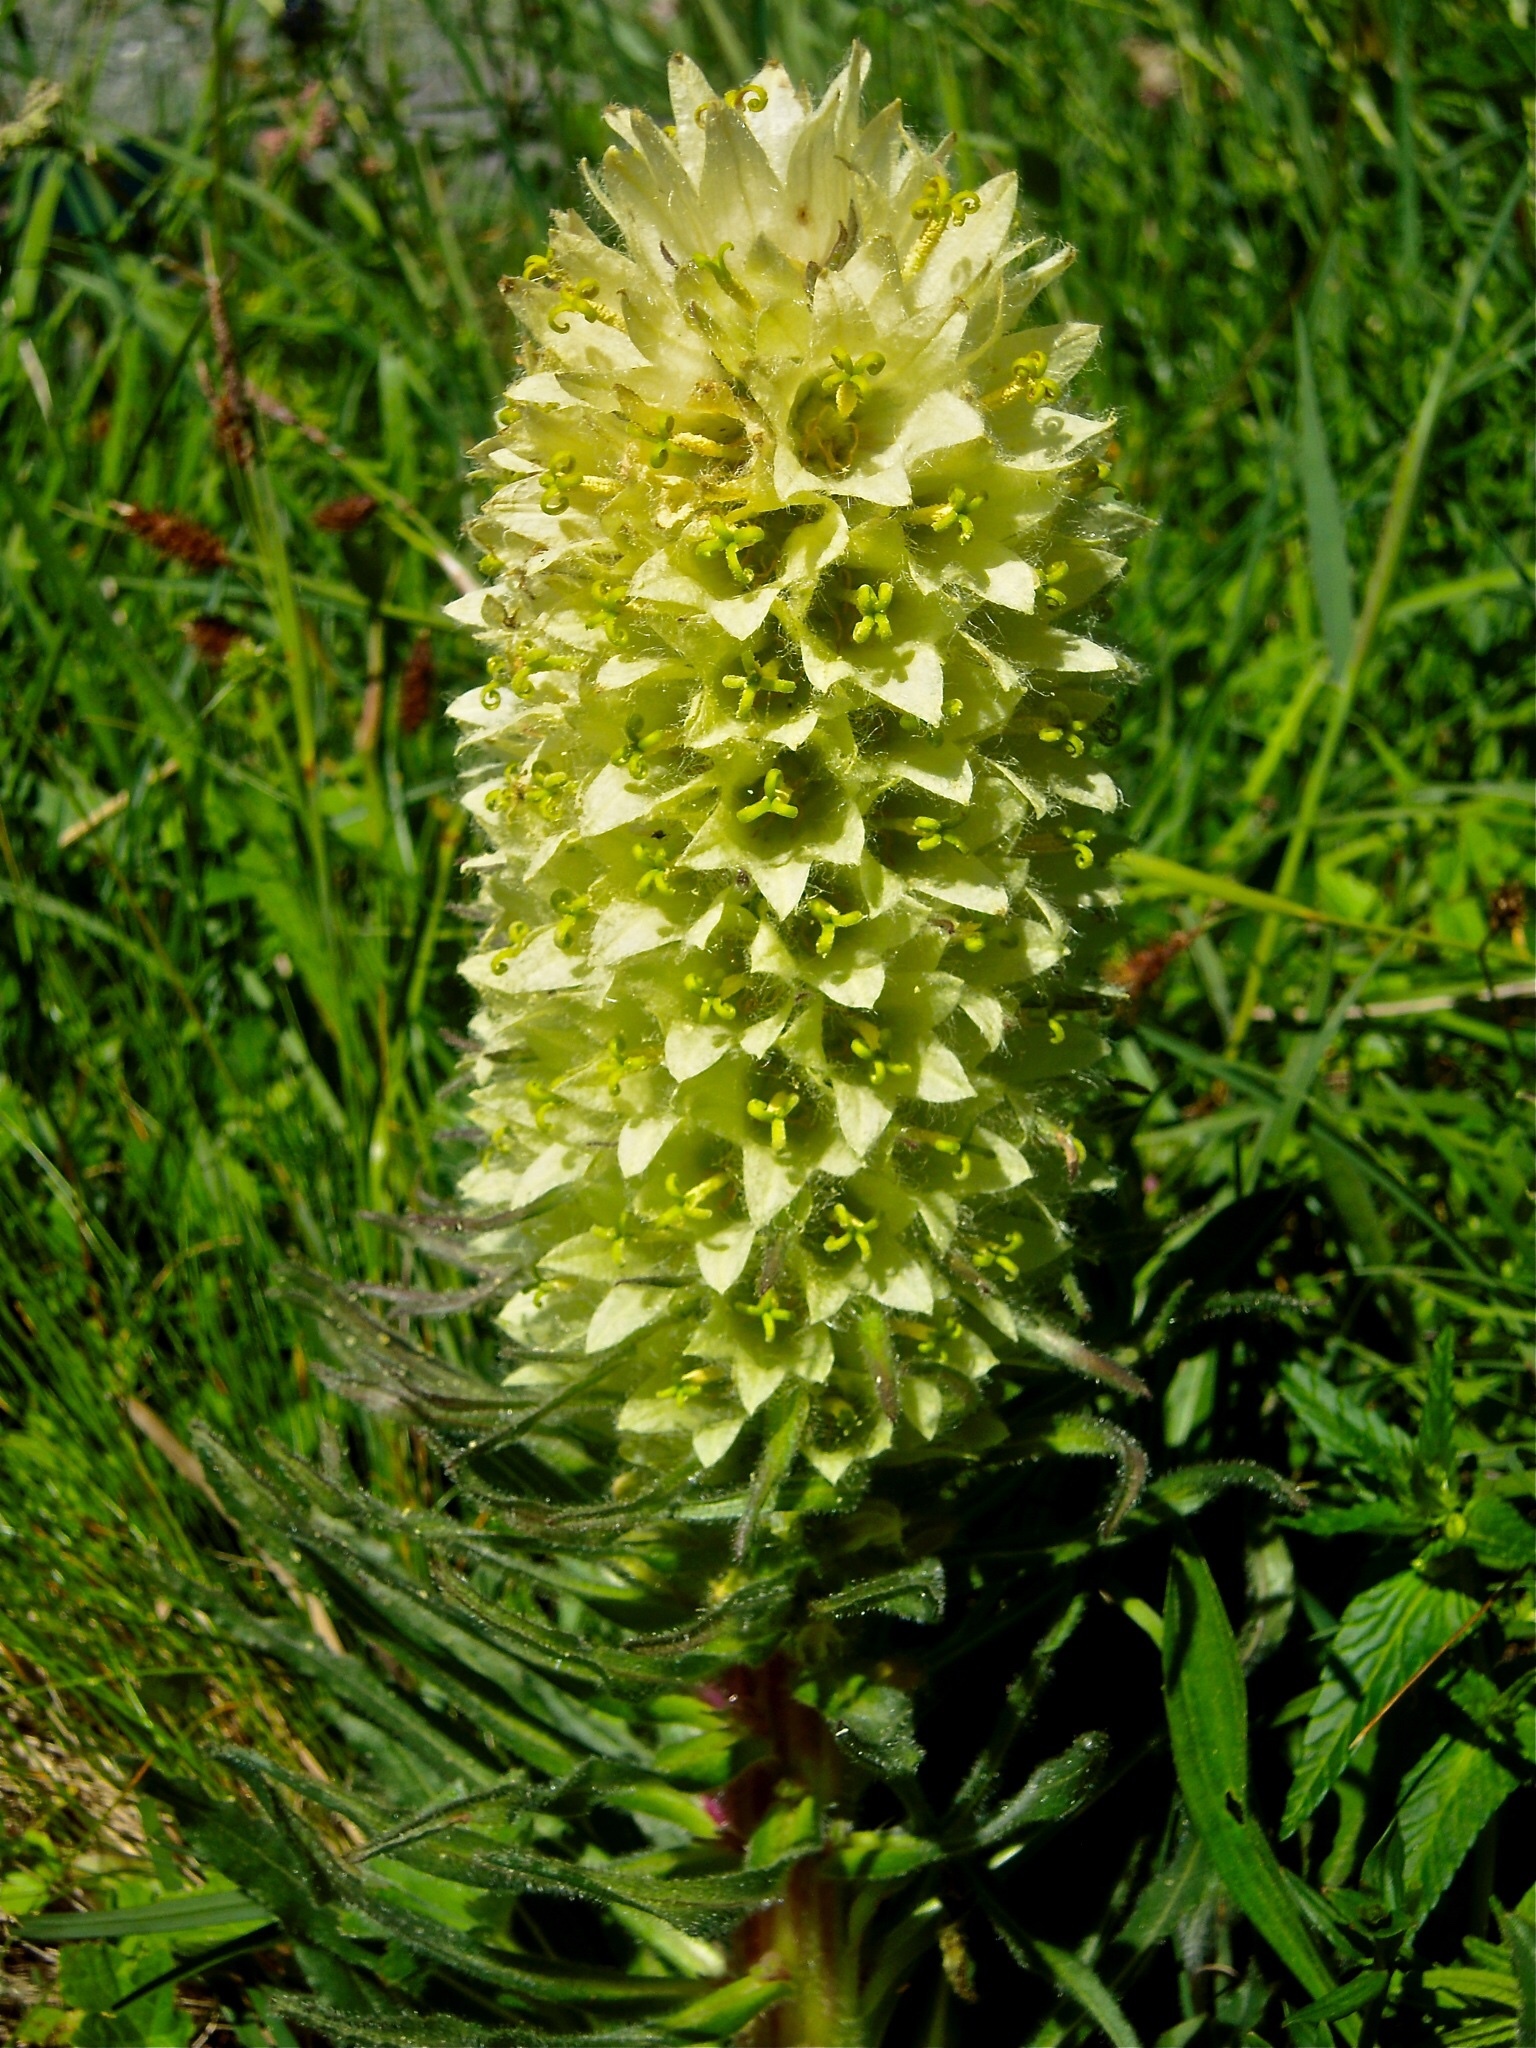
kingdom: Plantae
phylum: Tracheophyta
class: Magnoliopsida
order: Asterales
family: Campanulaceae
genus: Campanula
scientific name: Campanula thyrsoides
